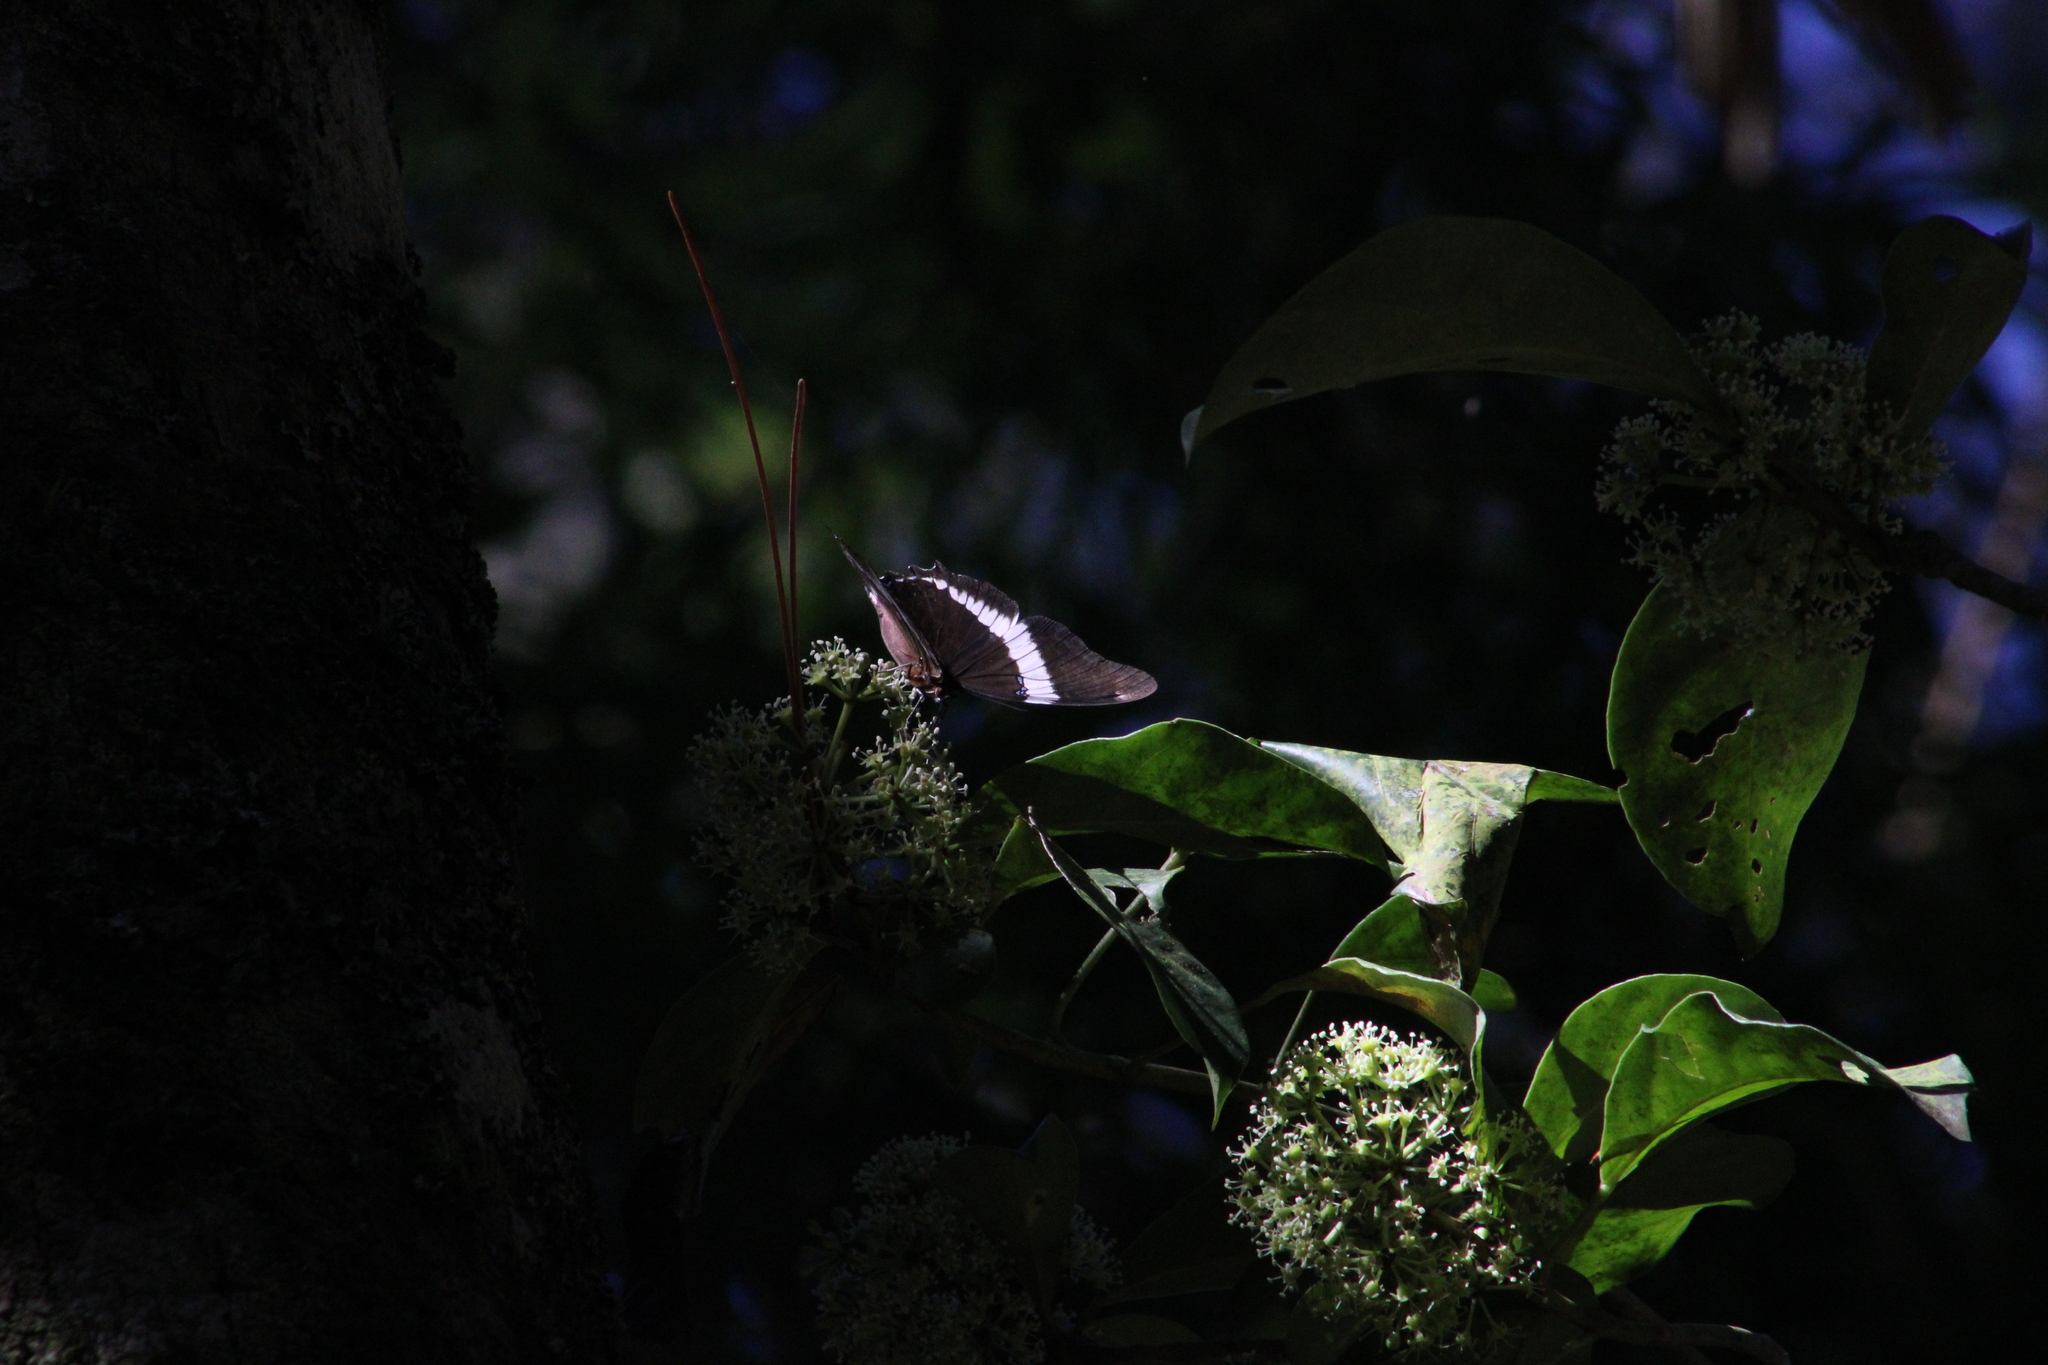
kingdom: Animalia
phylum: Arthropoda
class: Insecta
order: Lepidoptera
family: Nymphalidae
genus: Siproeta
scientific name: Siproeta epaphus
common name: Rusty-tipped page
